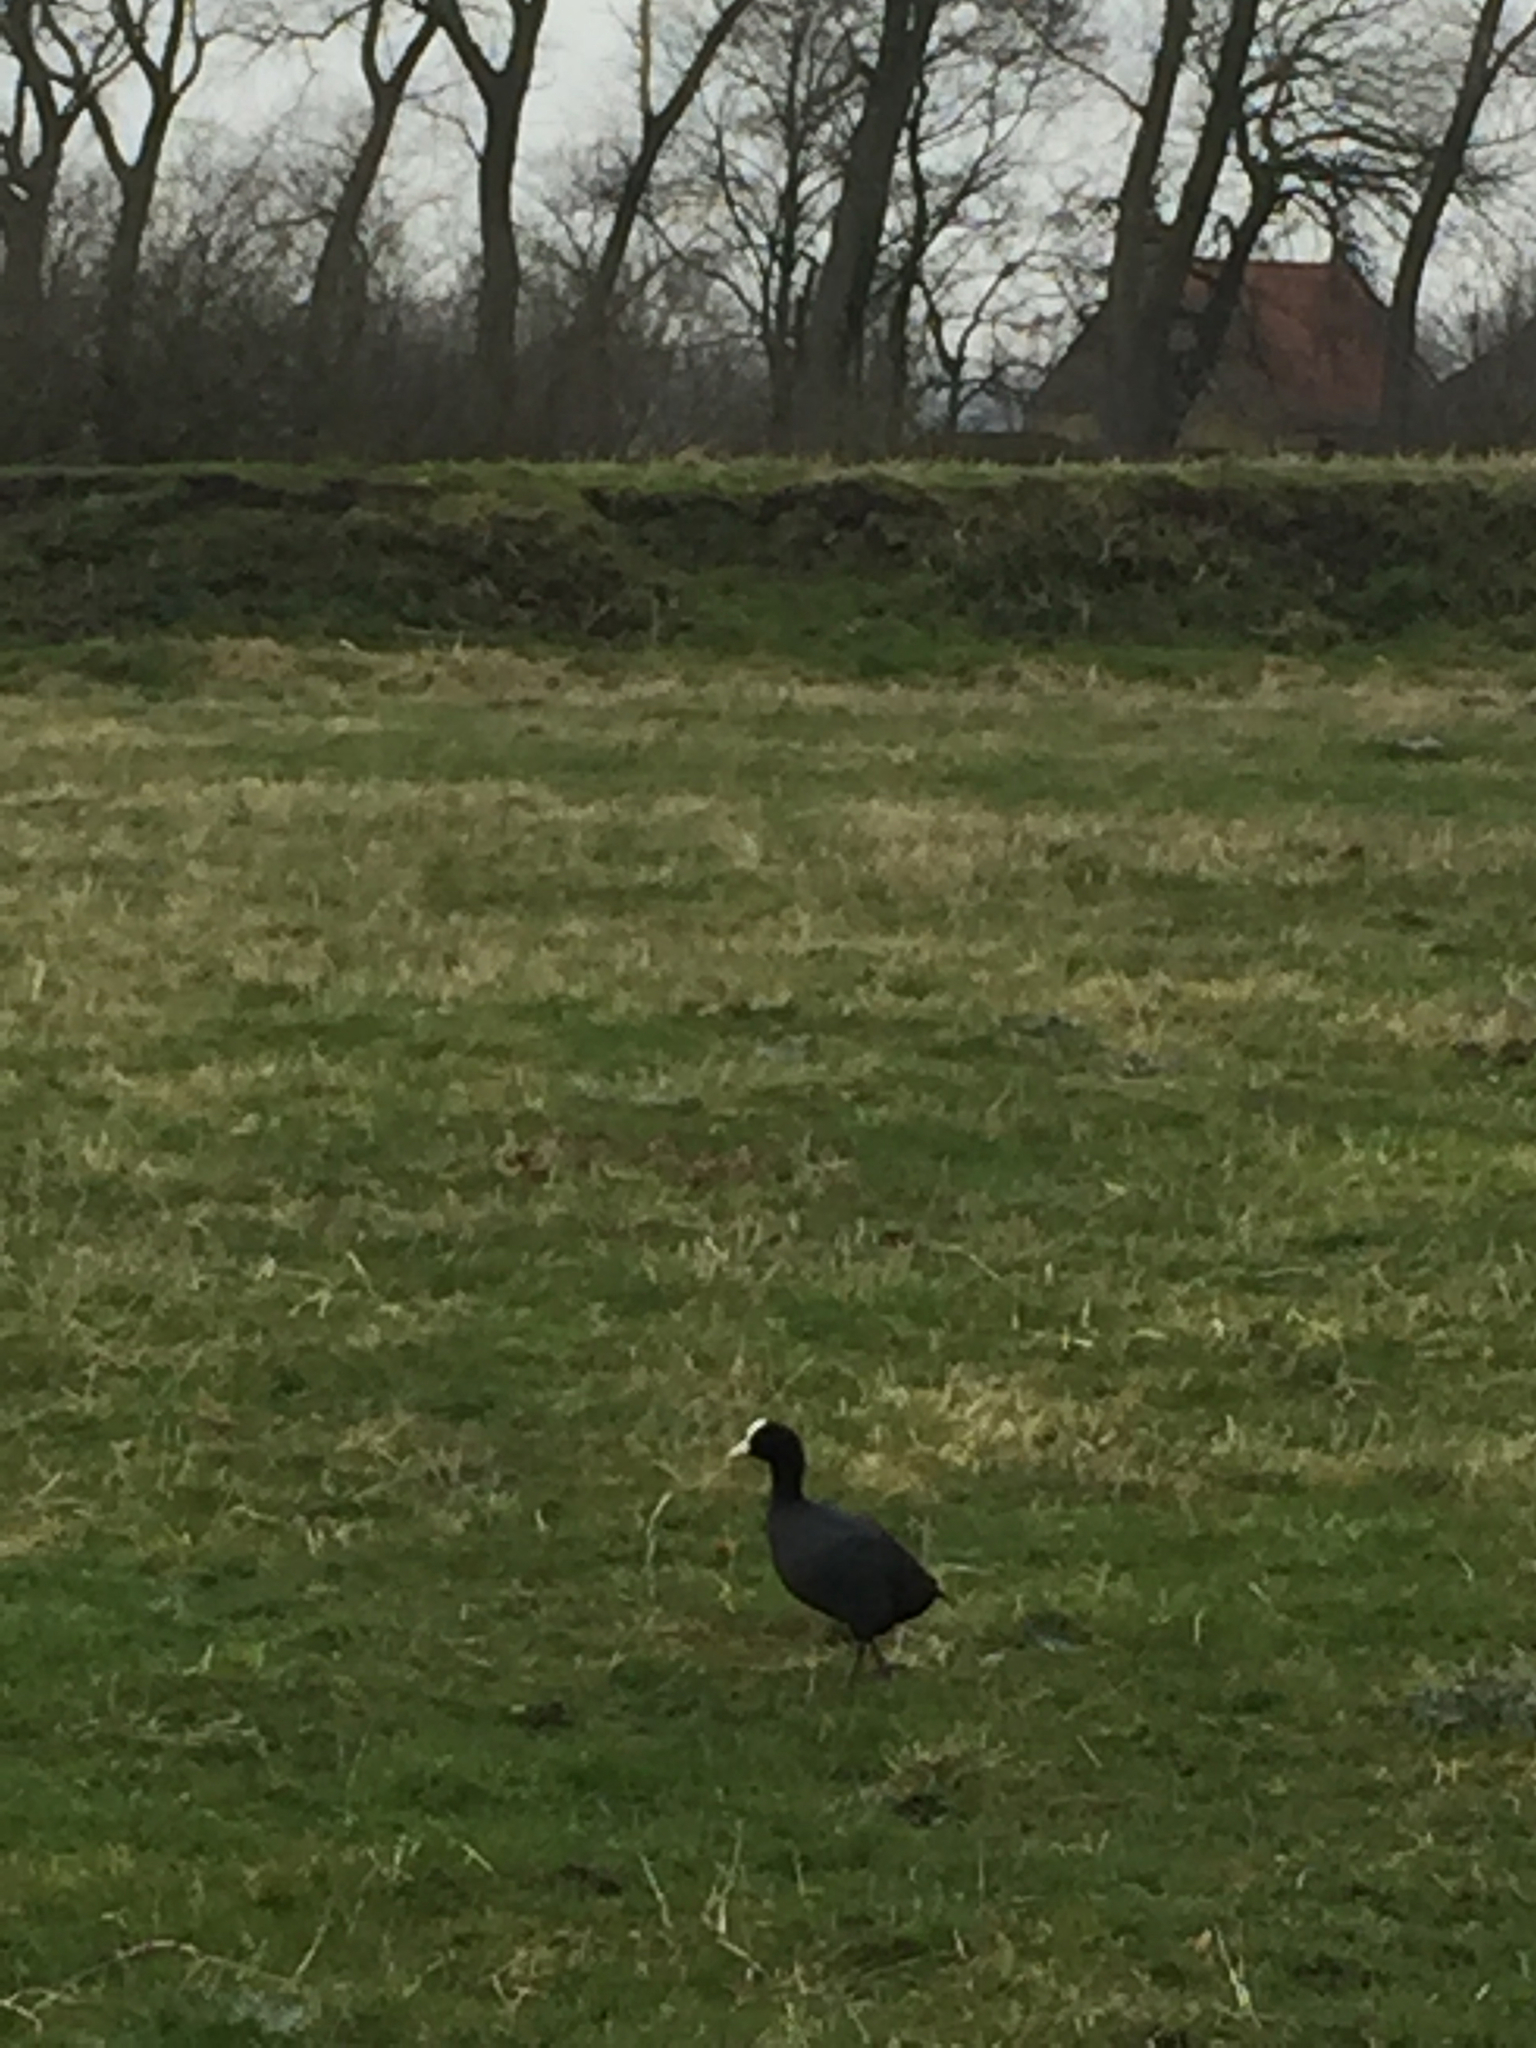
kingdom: Animalia
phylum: Chordata
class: Aves
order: Gruiformes
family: Rallidae
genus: Fulica
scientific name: Fulica atra
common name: Eurasian coot
